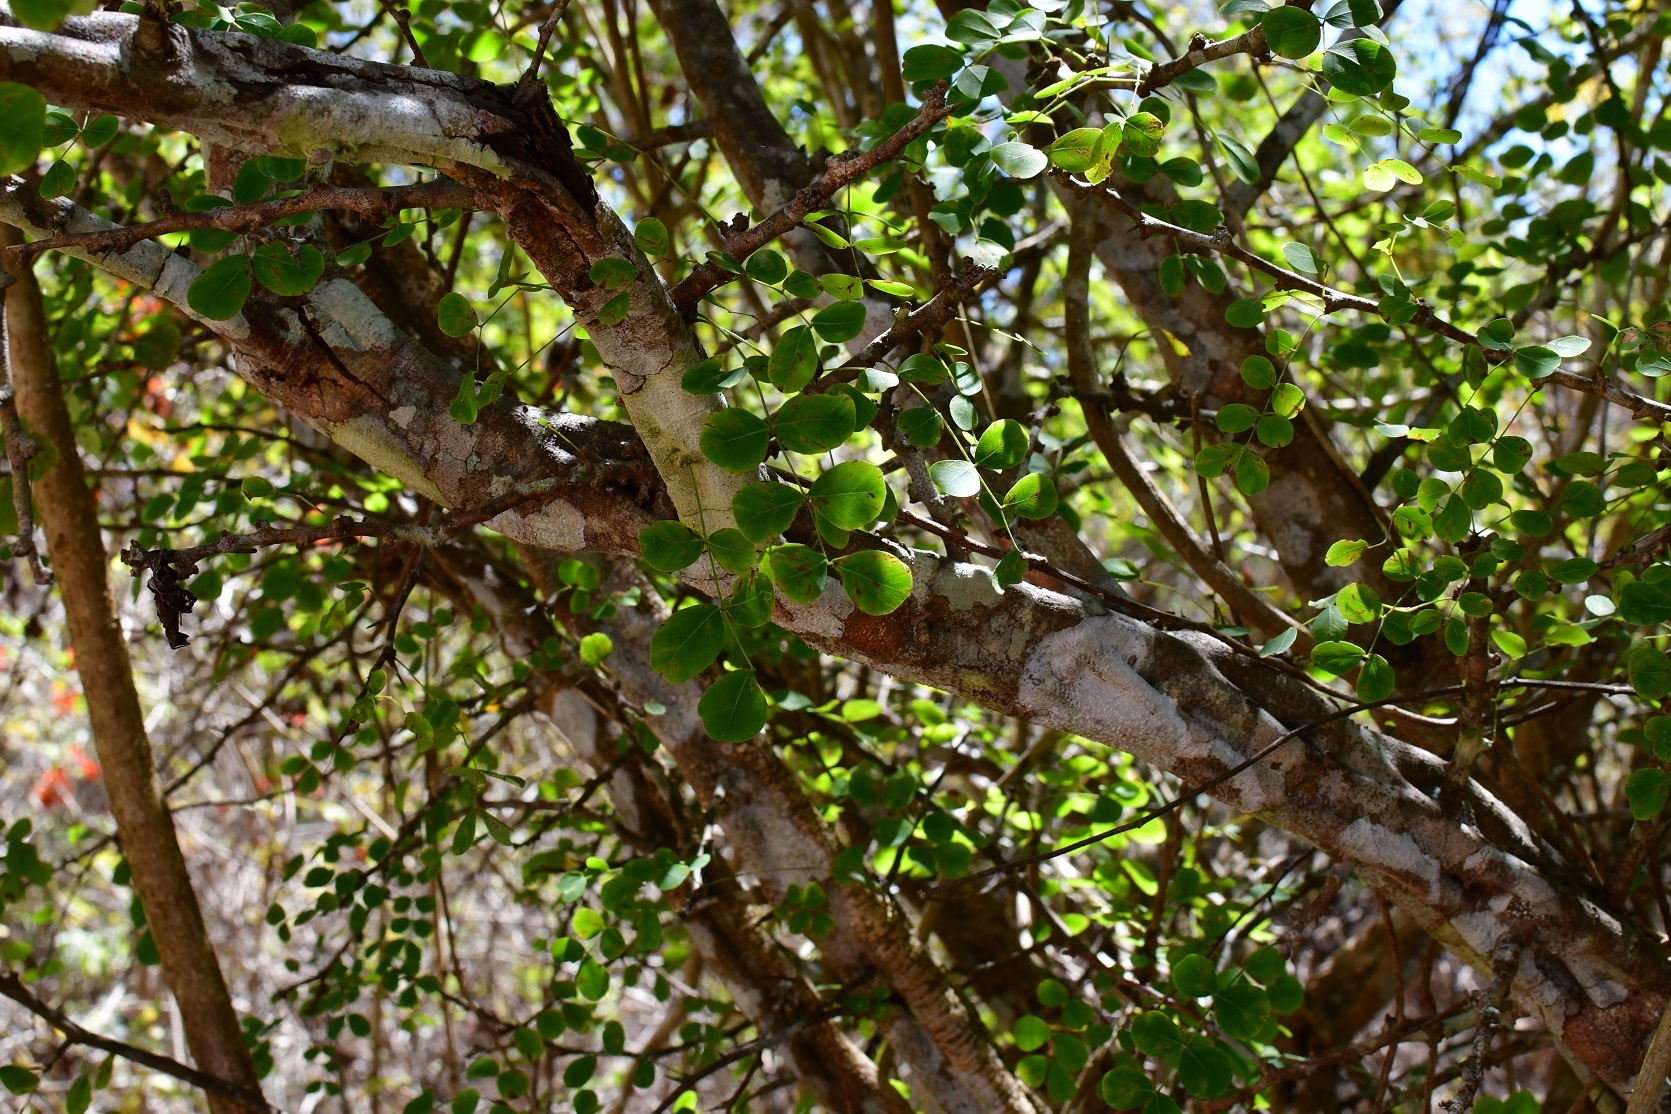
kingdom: Plantae
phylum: Tracheophyta
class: Magnoliopsida
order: Fabales
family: Fabaceae
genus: Haematoxylum
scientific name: Haematoxylum brasiletto
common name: Peachwood
